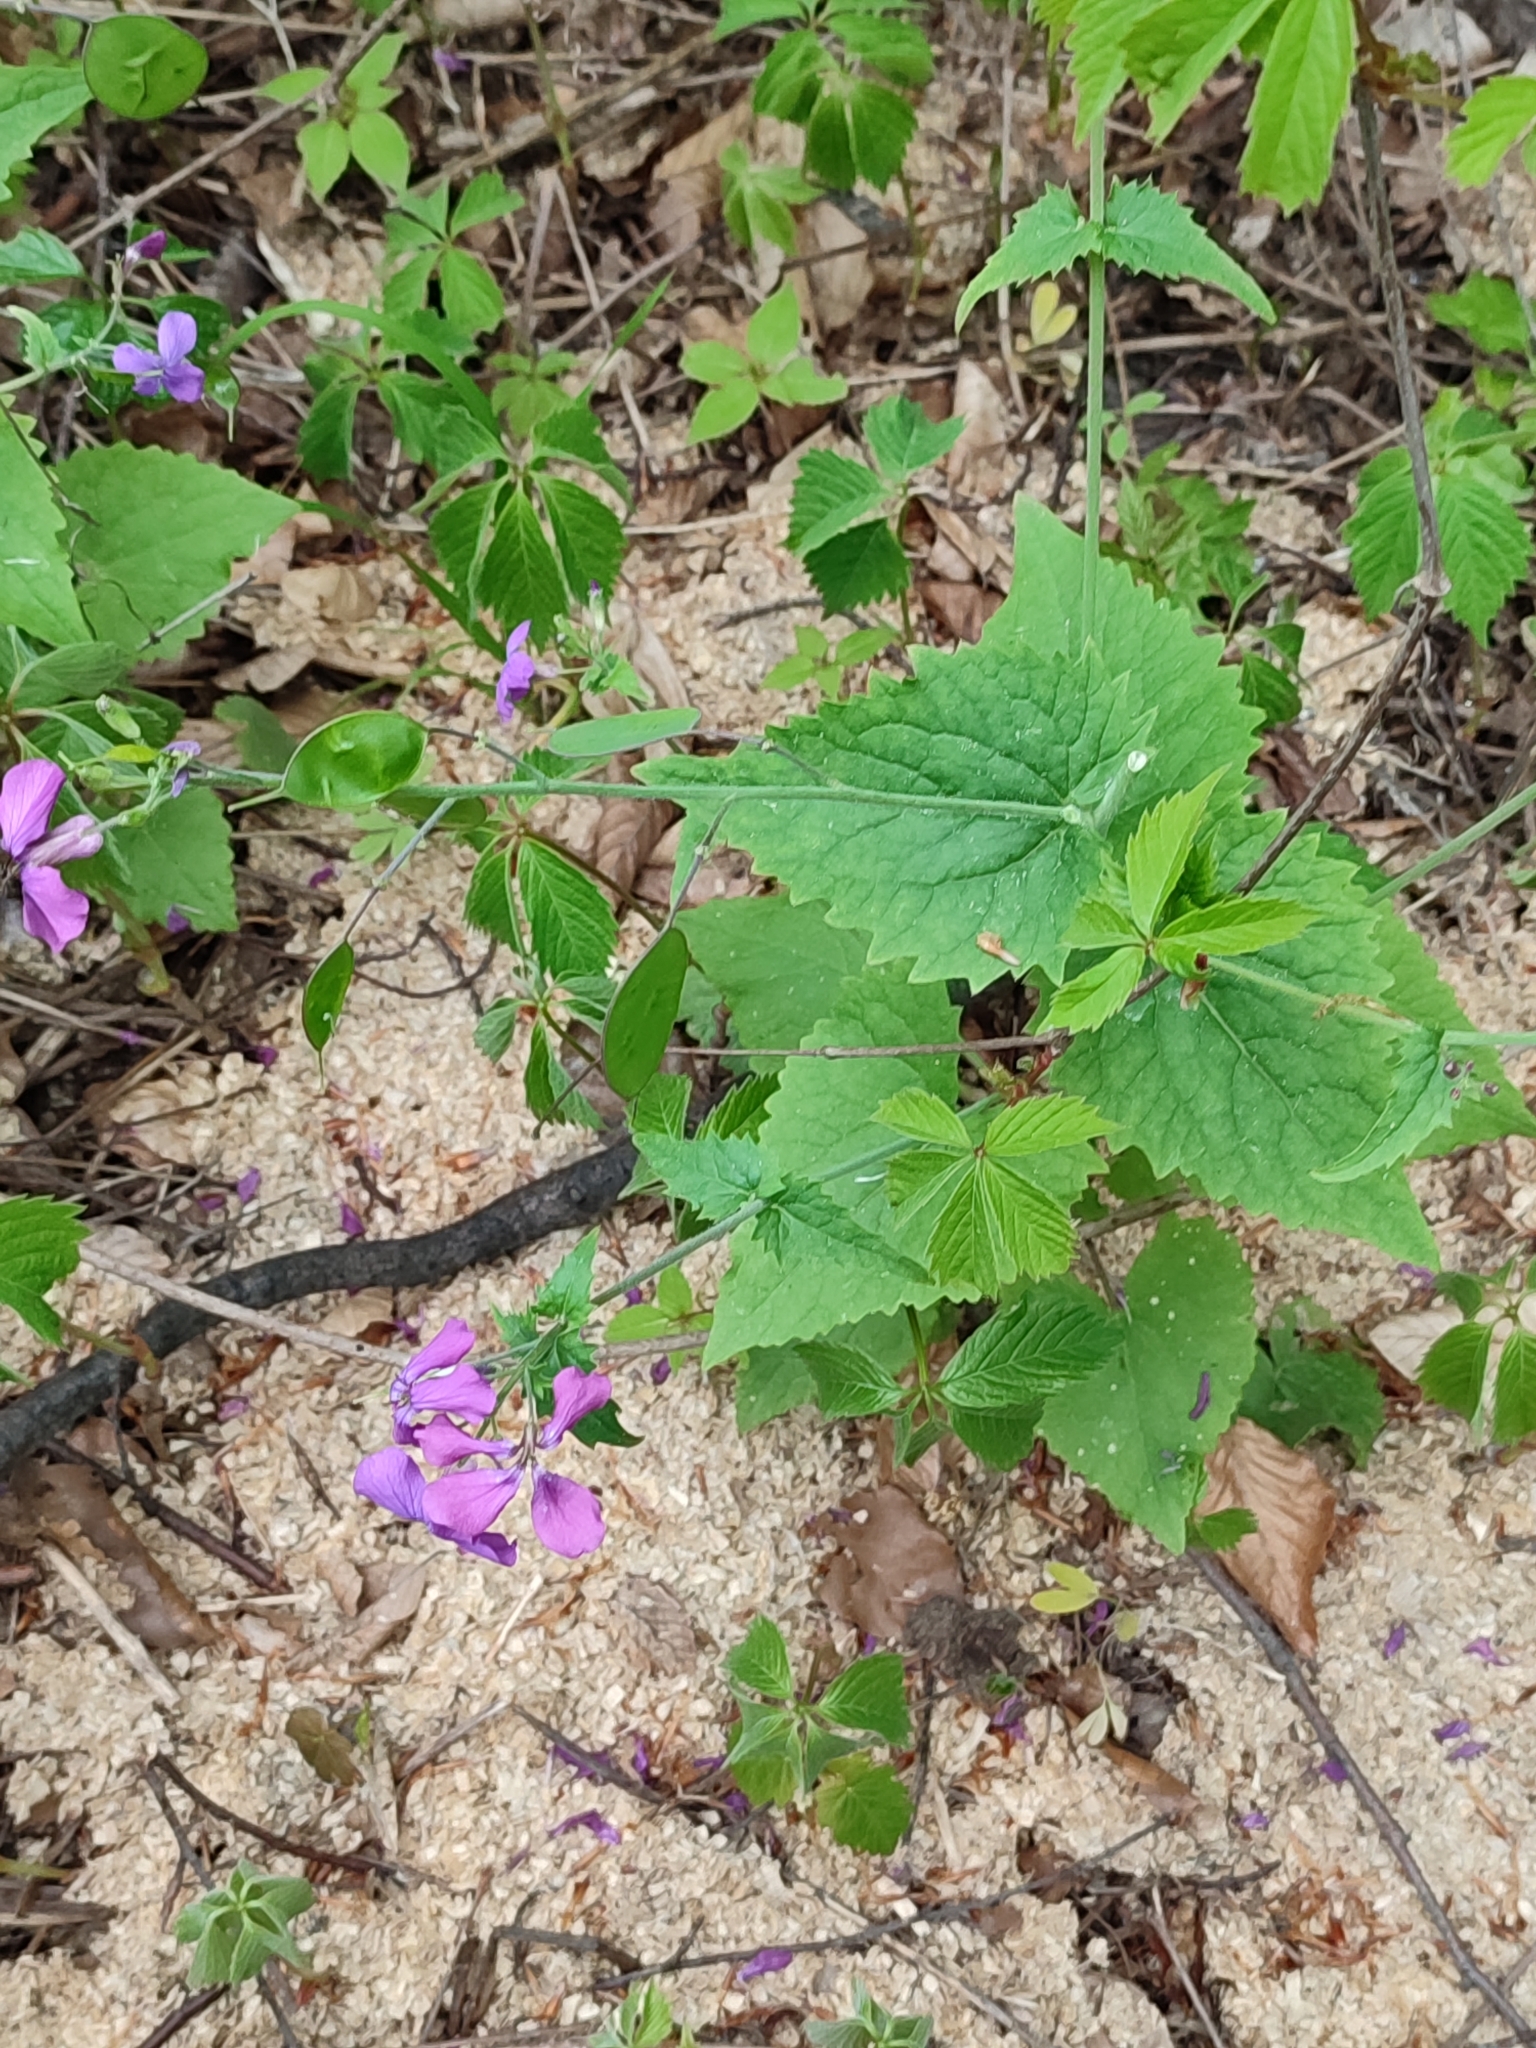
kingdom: Plantae
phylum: Tracheophyta
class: Magnoliopsida
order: Brassicales
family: Brassicaceae
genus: Lunaria
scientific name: Lunaria annua
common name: Honesty
